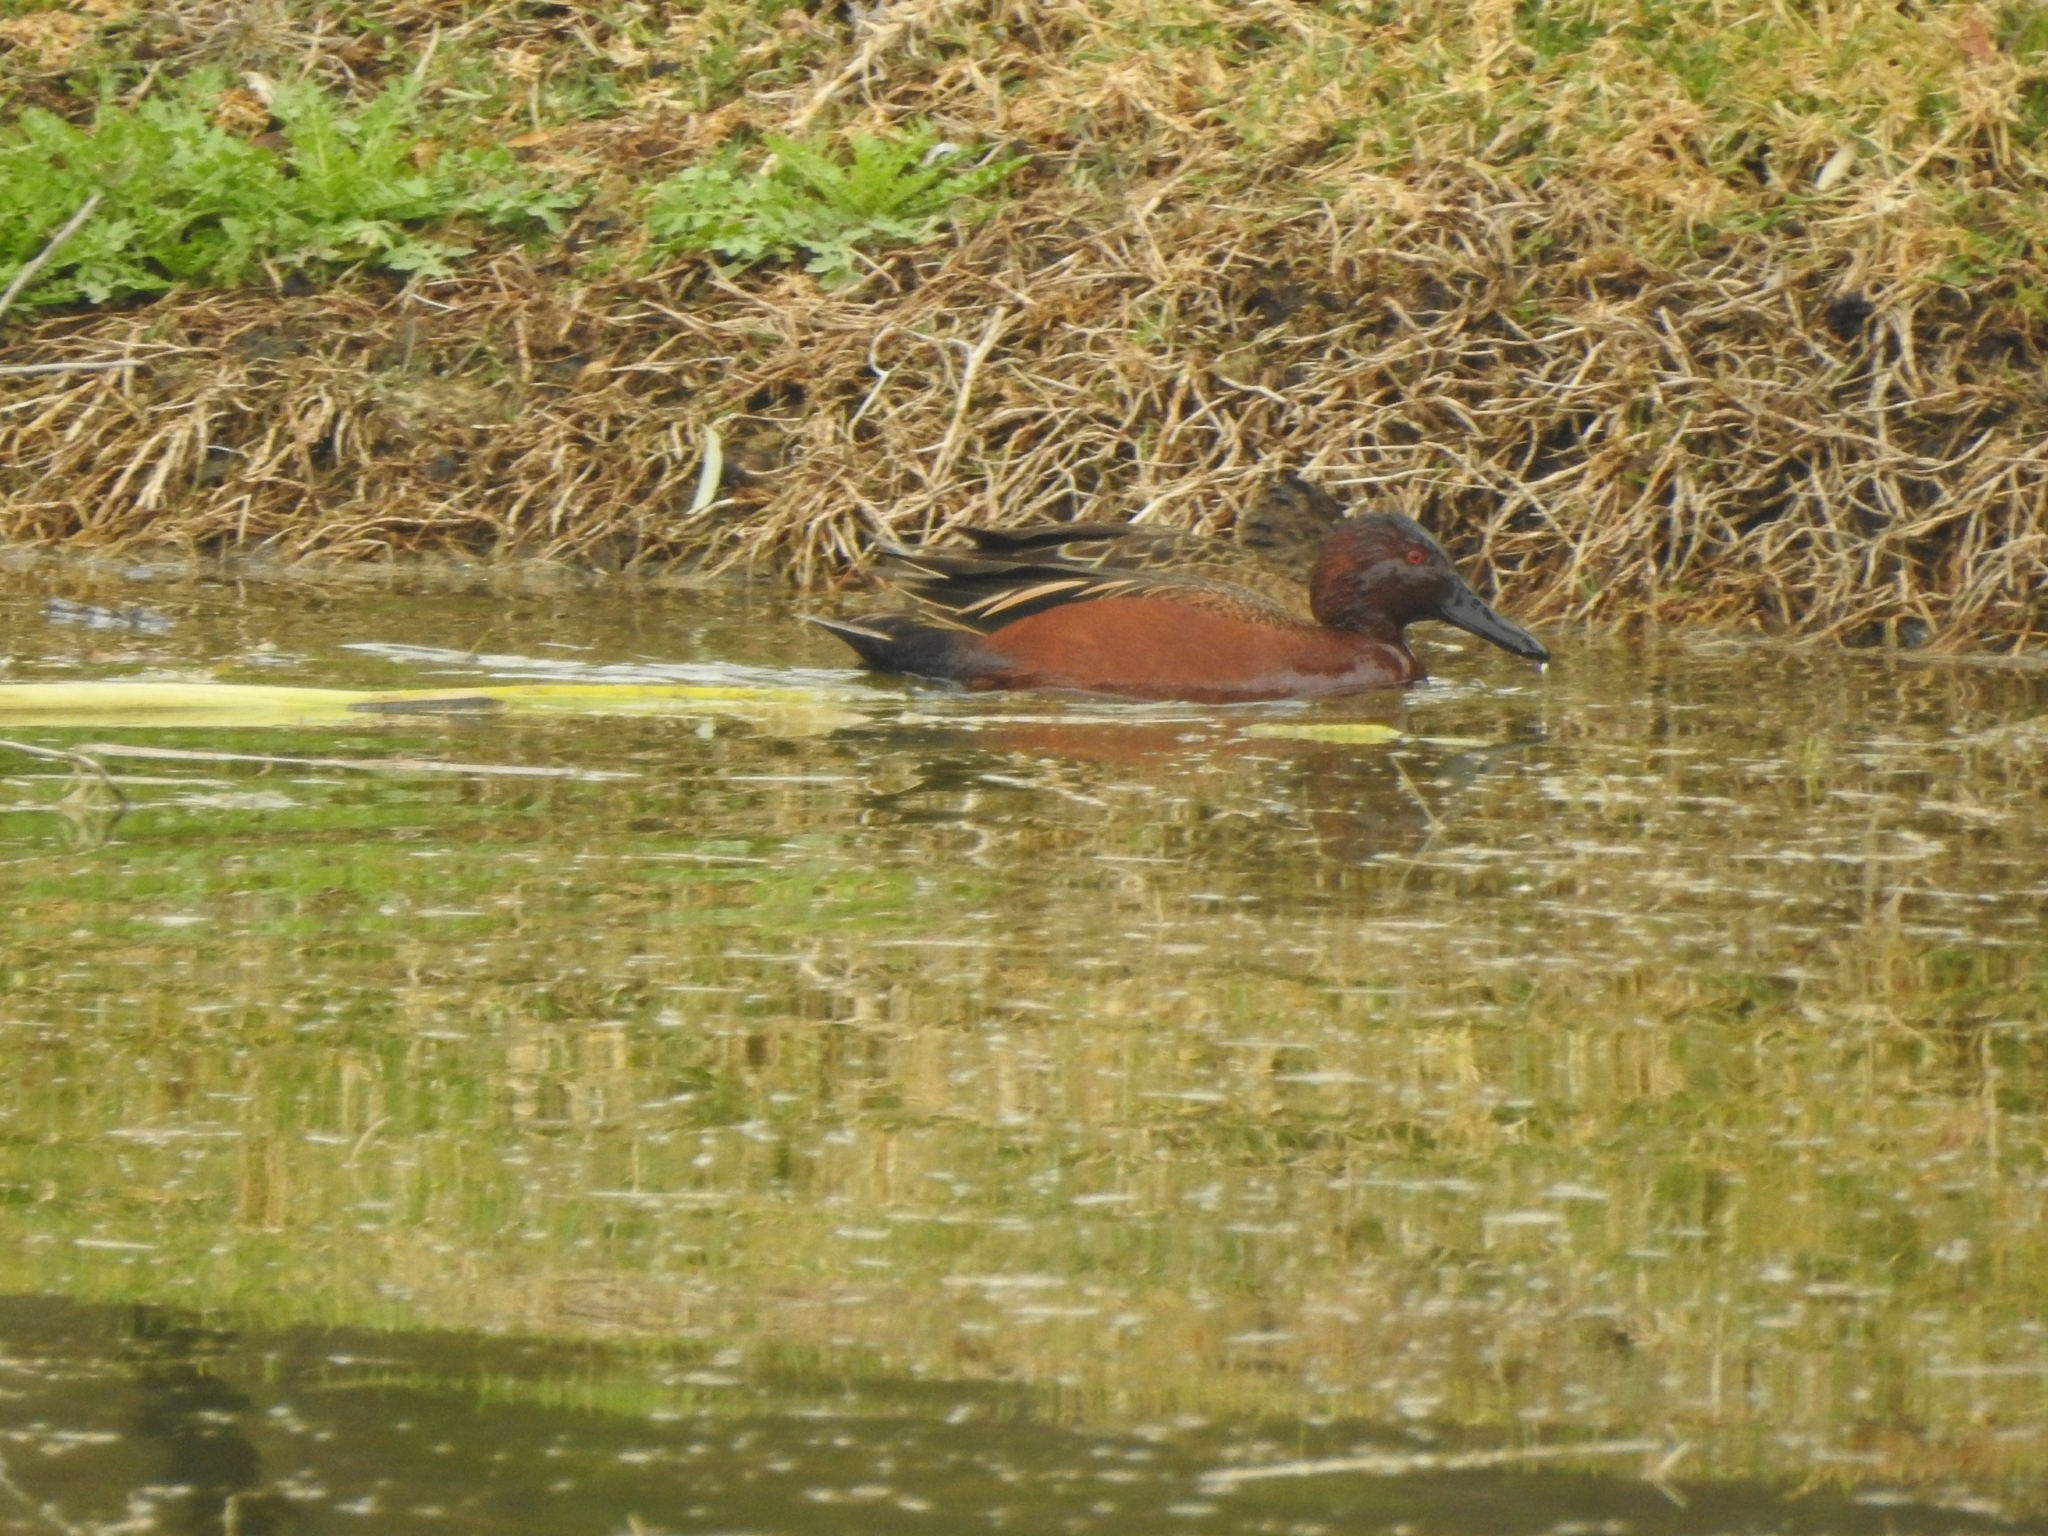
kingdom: Animalia
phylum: Chordata
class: Aves
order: Anseriformes
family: Anatidae
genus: Spatula
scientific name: Spatula cyanoptera
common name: Cinnamon teal
